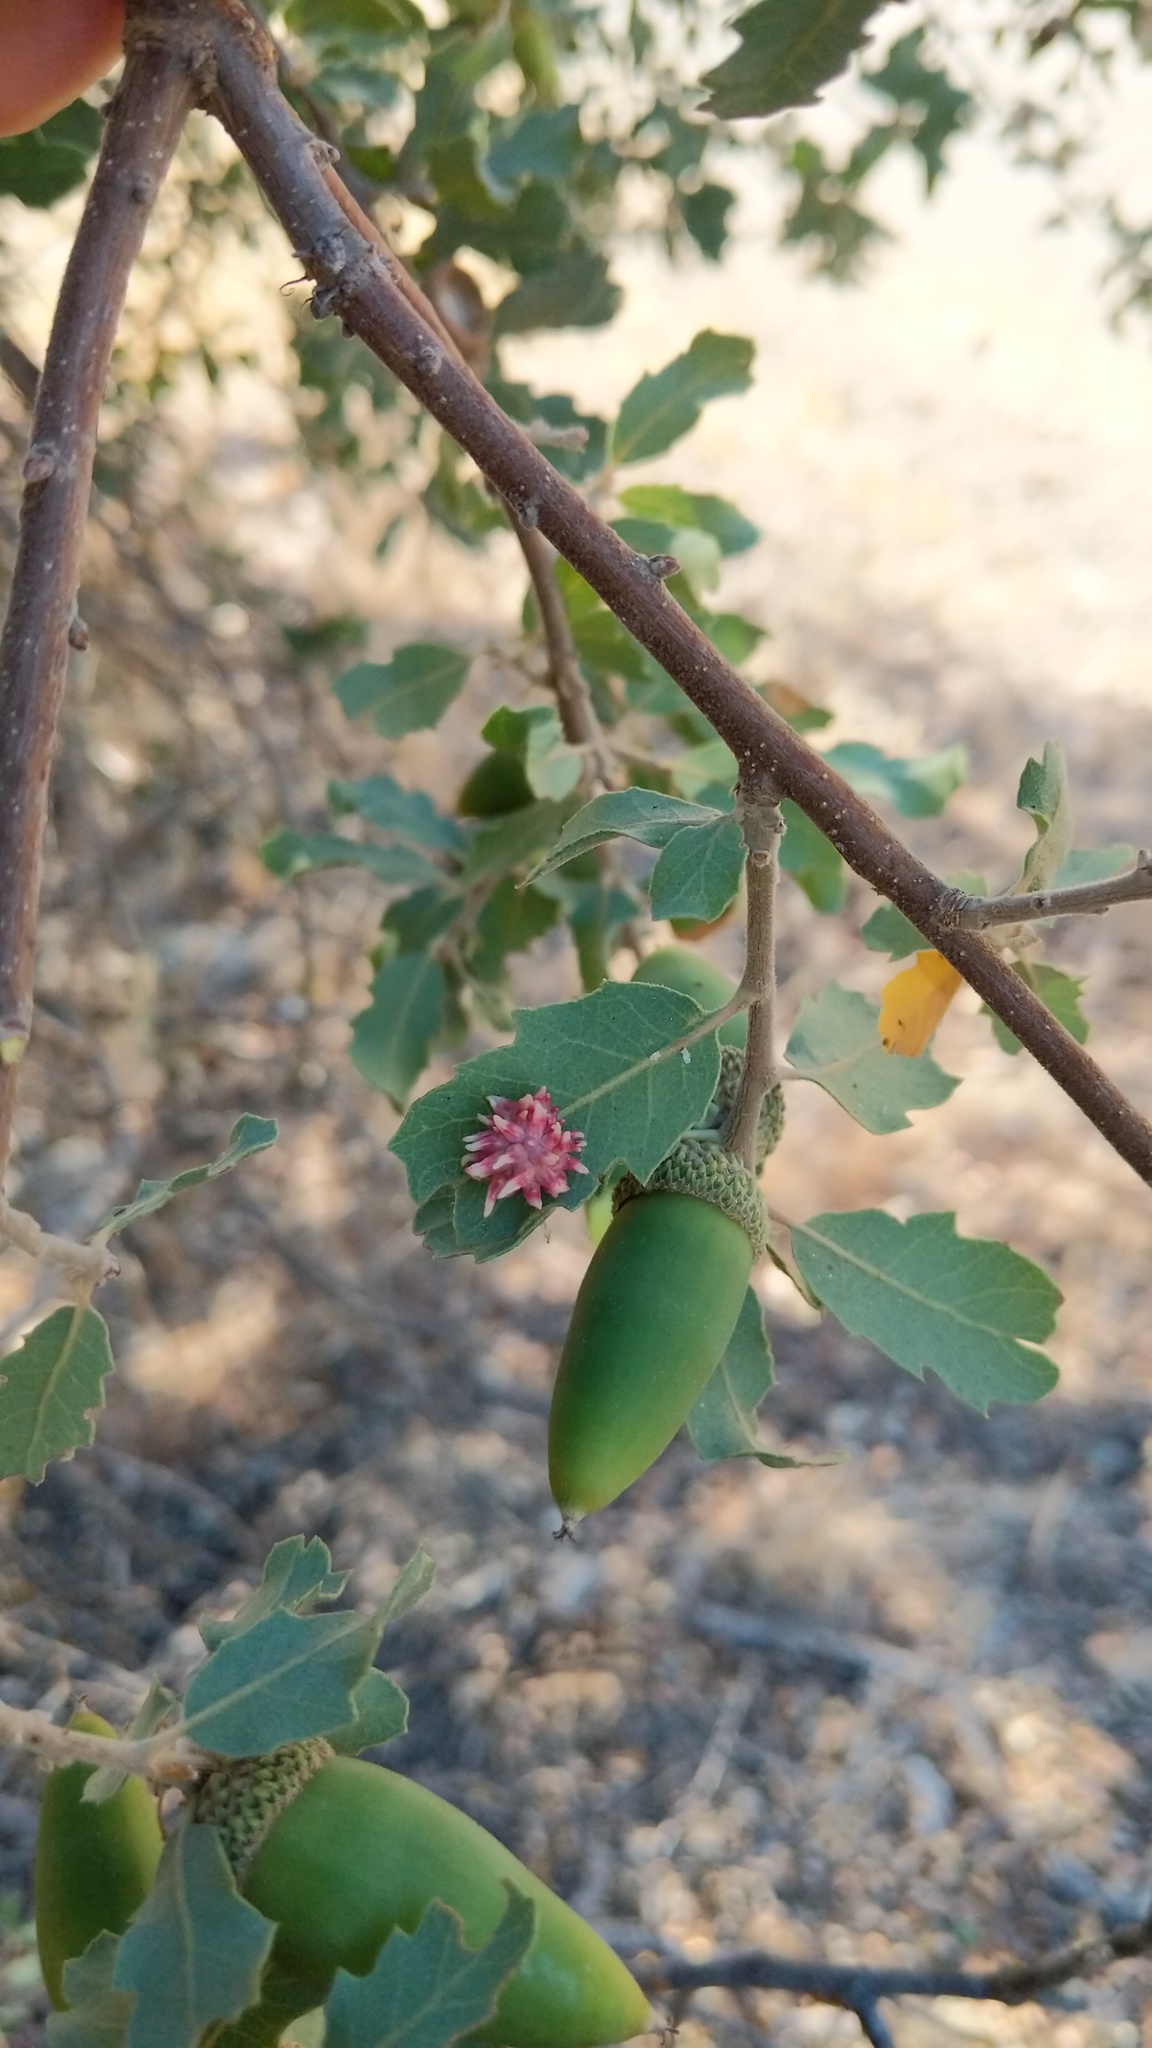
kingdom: Animalia
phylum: Arthropoda
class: Insecta
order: Hymenoptera
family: Cynipidae
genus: Cynips
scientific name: Cynips
